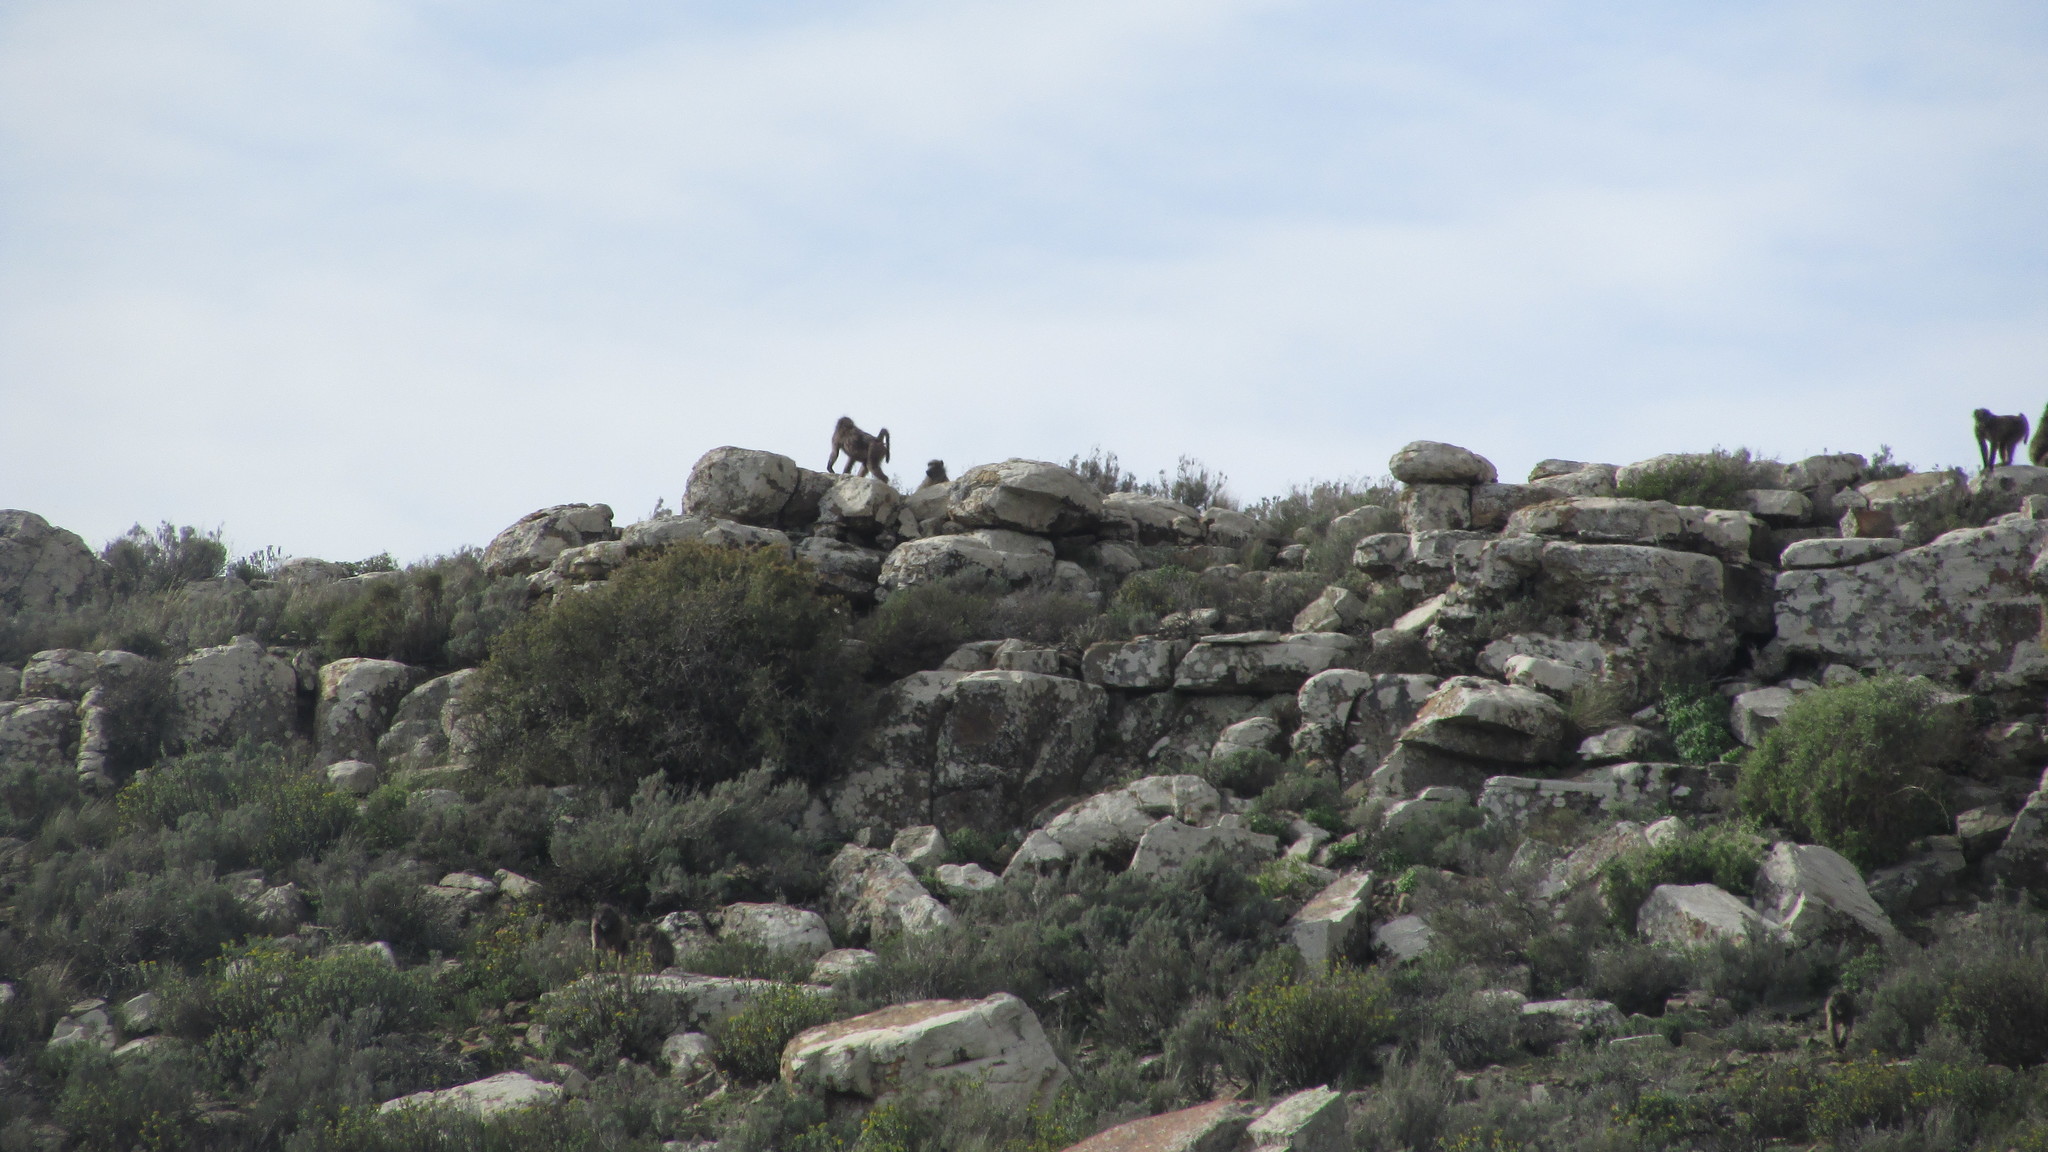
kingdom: Animalia
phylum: Chordata
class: Mammalia
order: Primates
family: Cercopithecidae
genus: Papio
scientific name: Papio ursinus
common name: Chacma baboon
